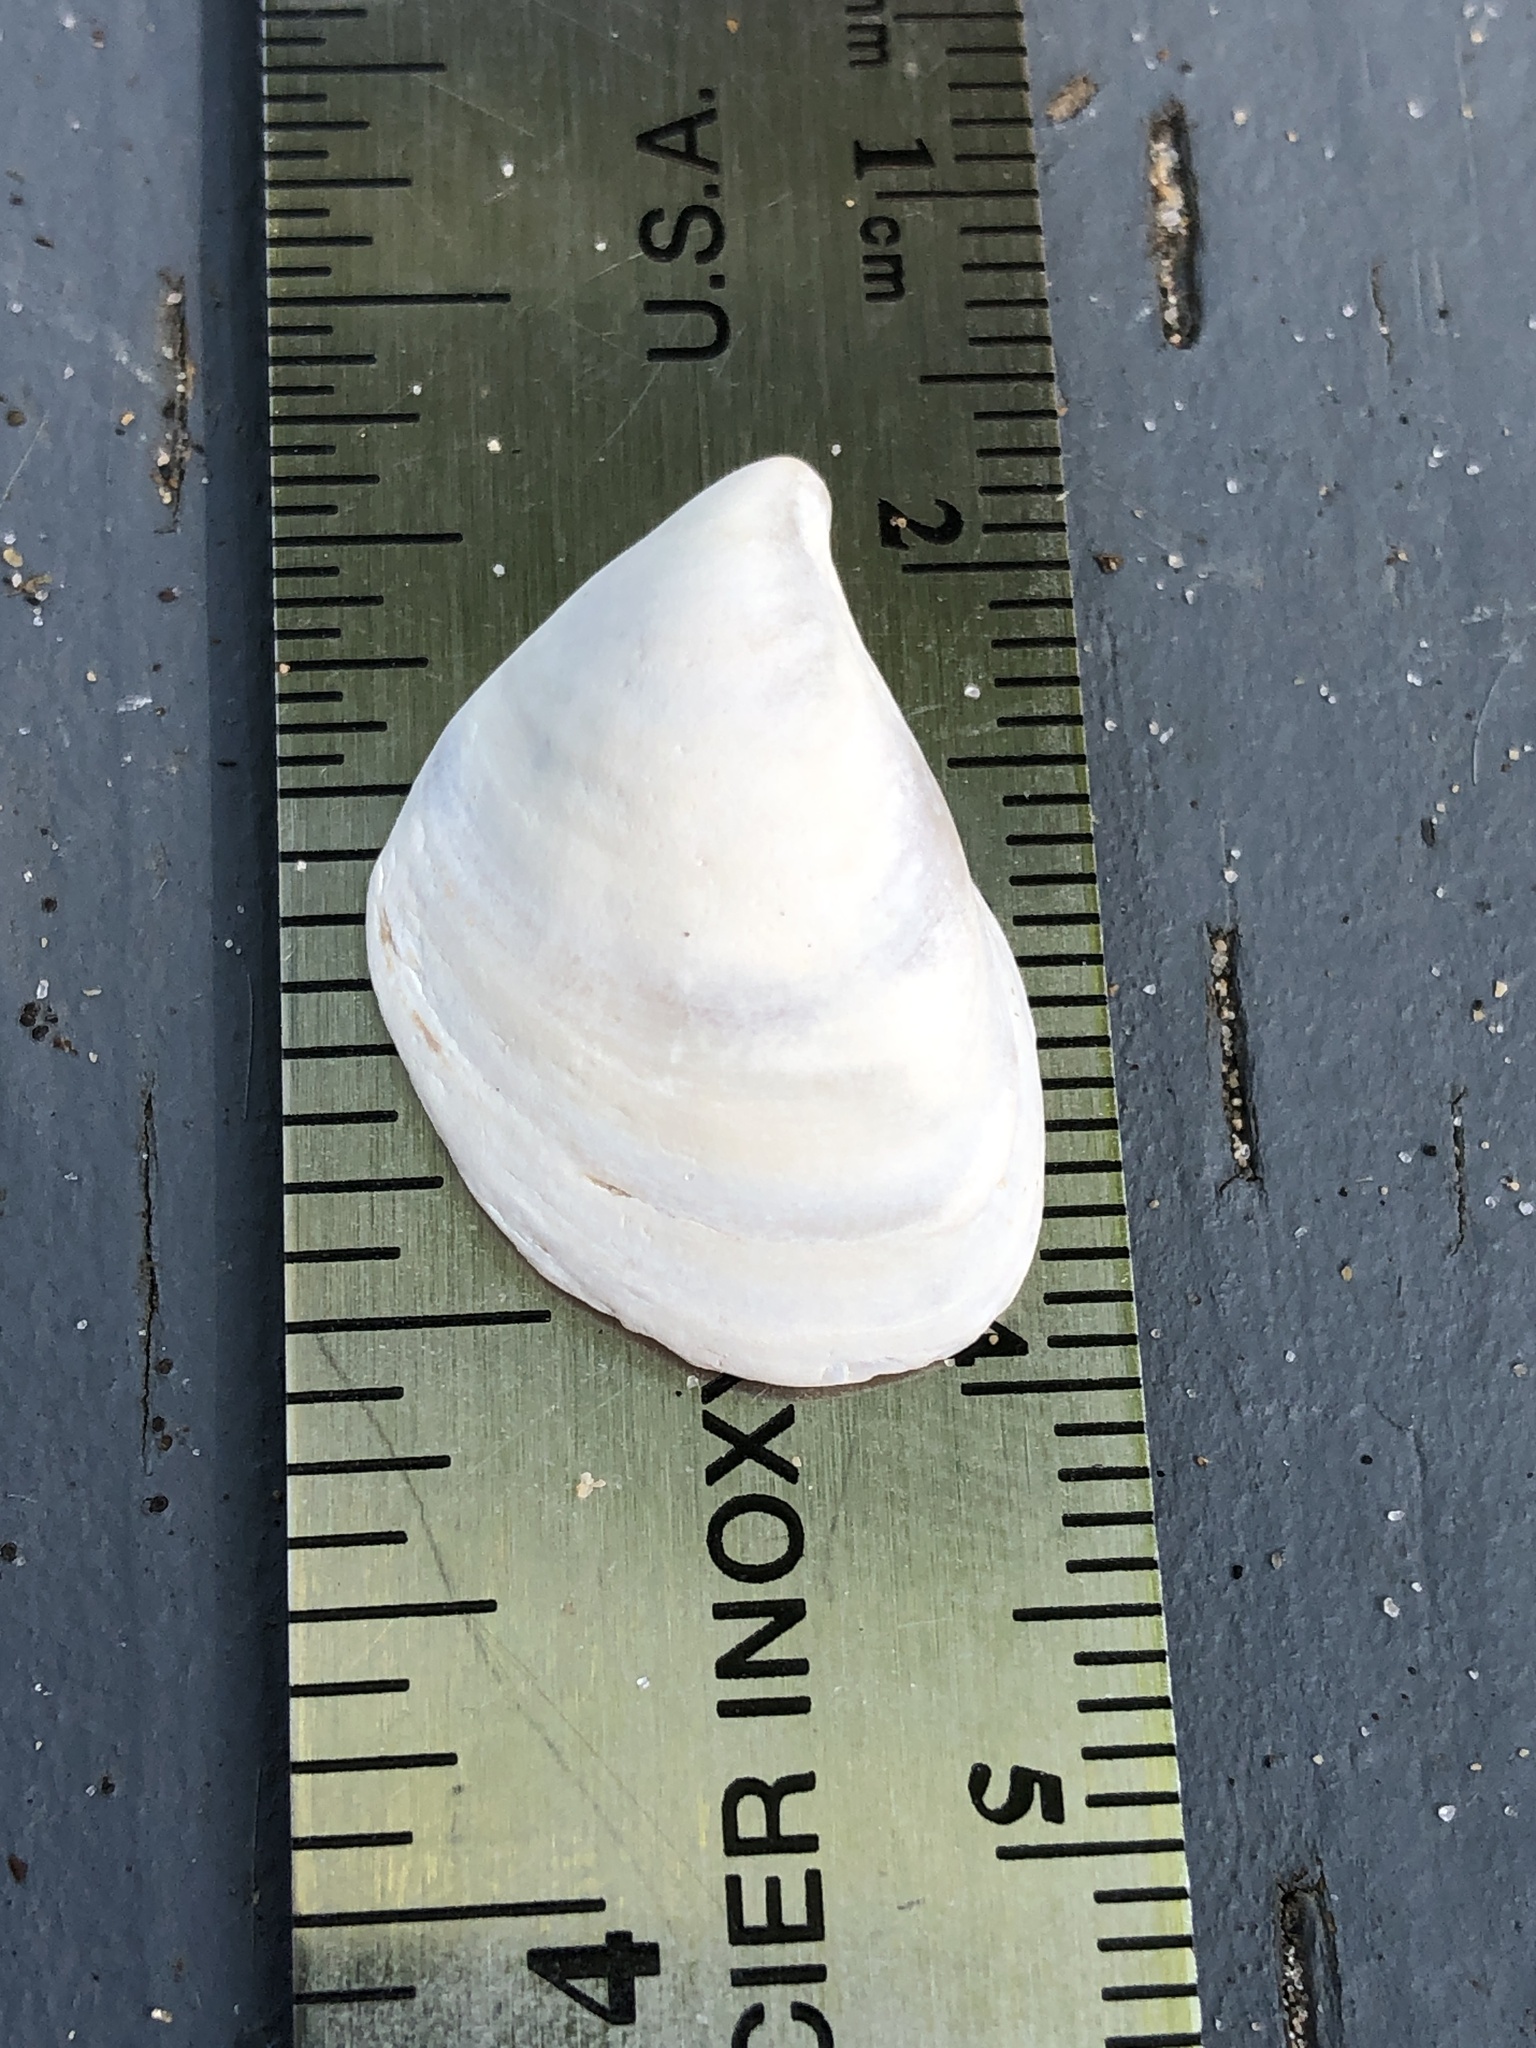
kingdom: Animalia
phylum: Mollusca
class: Bivalvia
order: Myida
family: Dreissenidae
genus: Dreissena
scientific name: Dreissena bugensis
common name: Quagga mussel
